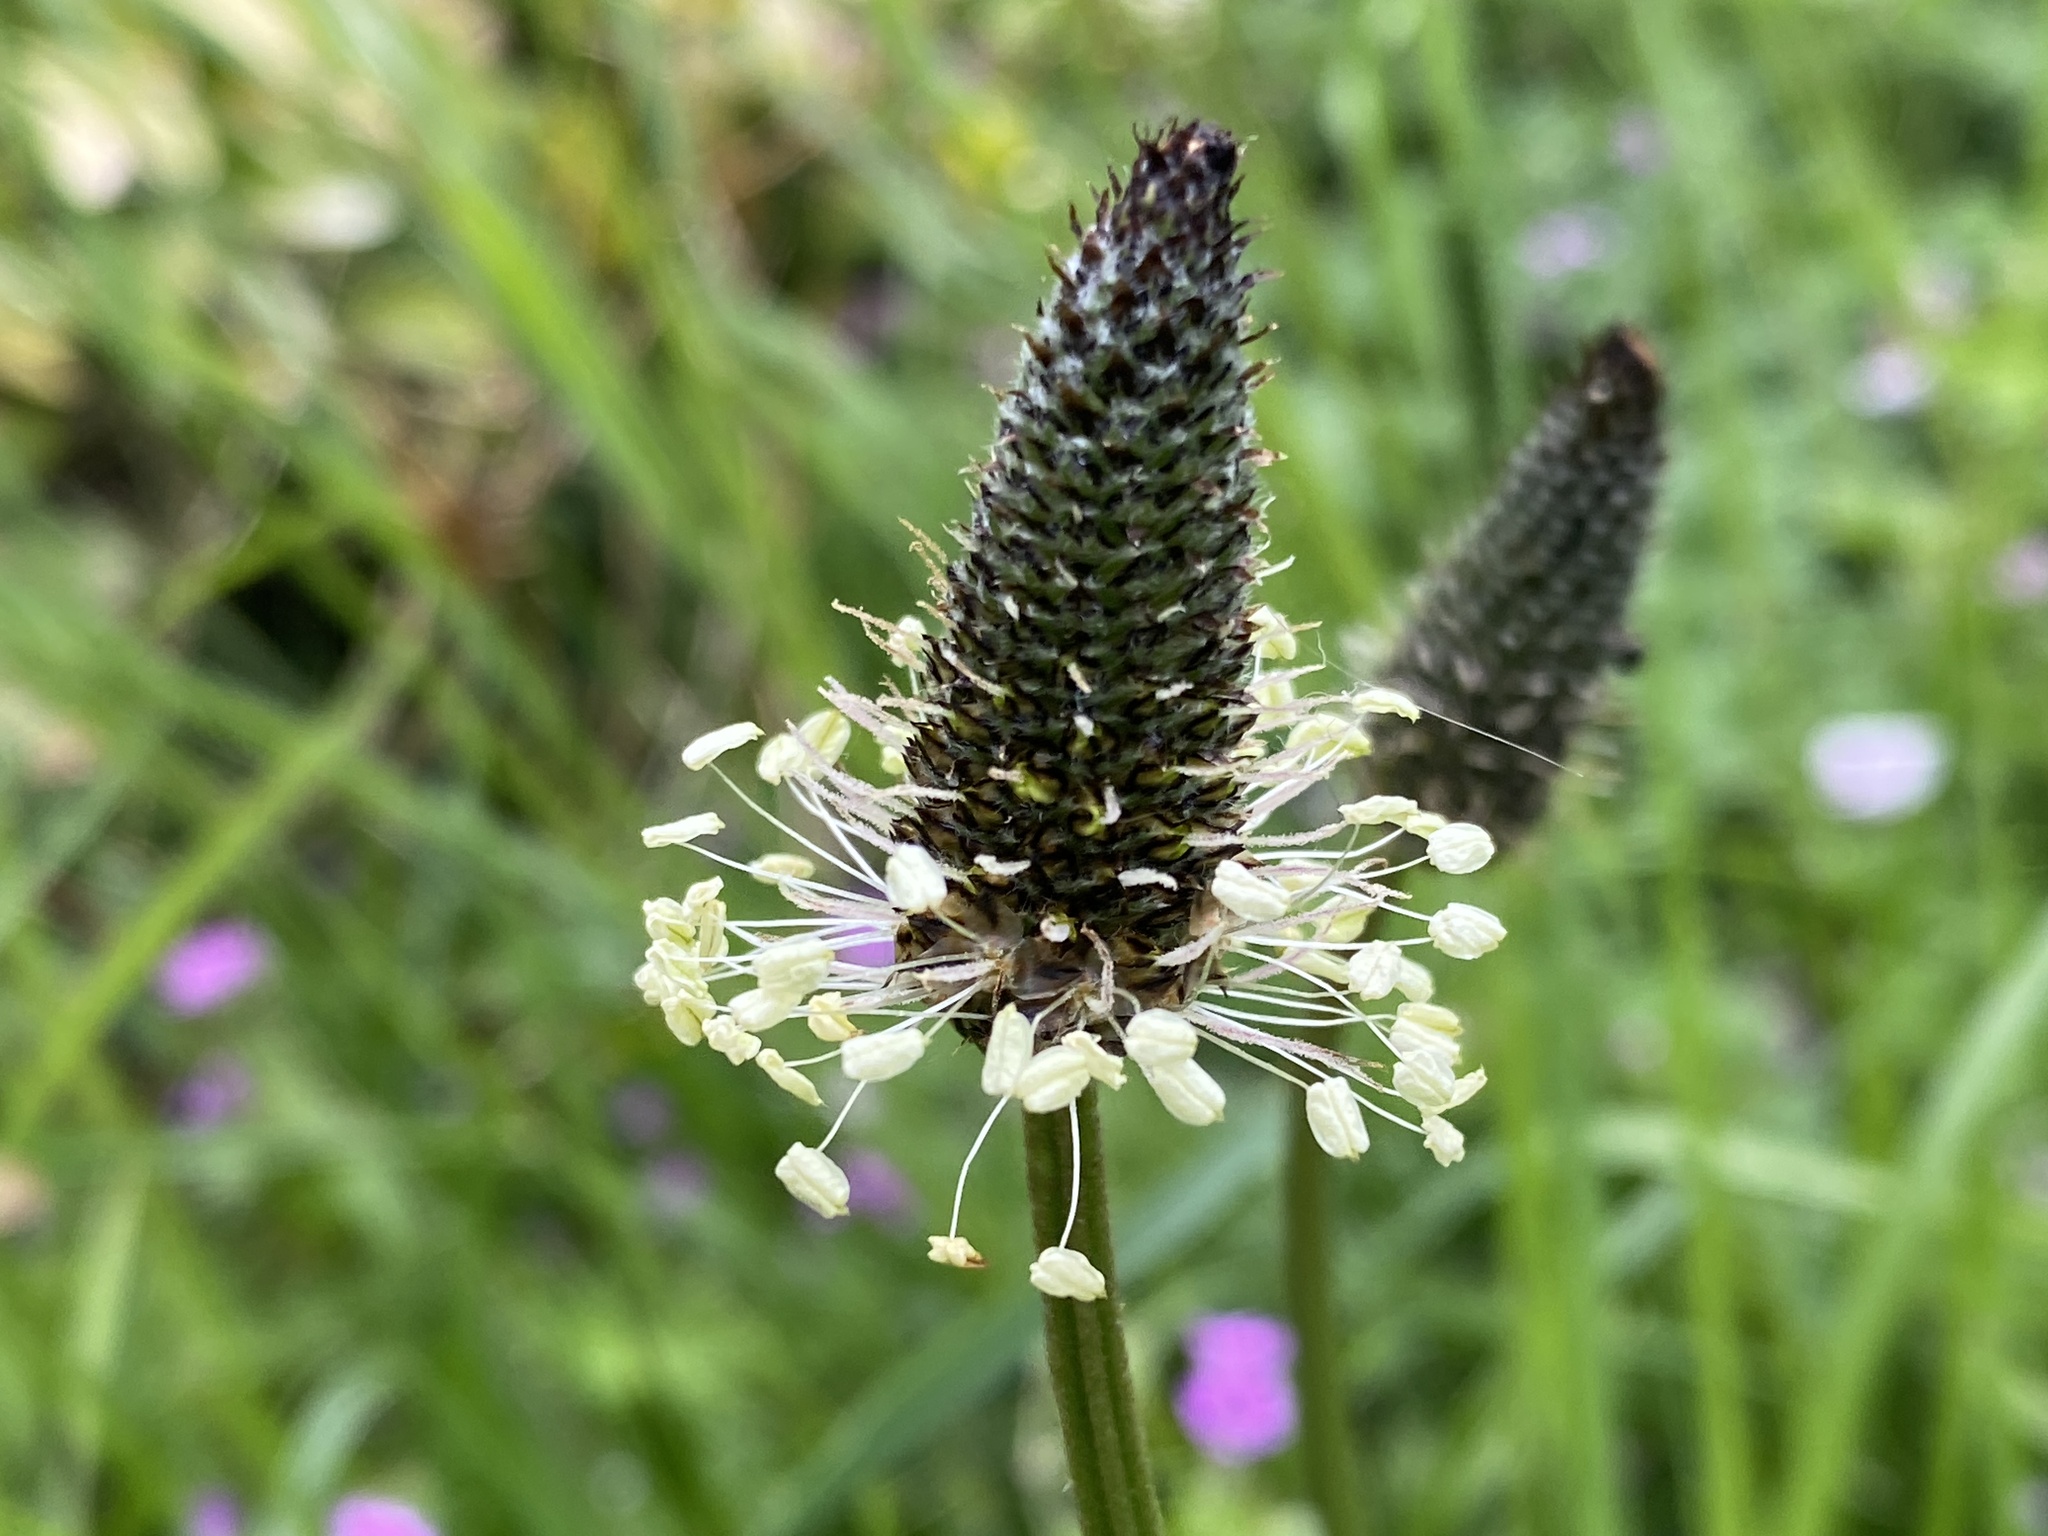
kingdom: Plantae
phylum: Tracheophyta
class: Magnoliopsida
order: Lamiales
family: Plantaginaceae
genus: Plantago
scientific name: Plantago lanceolata
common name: Ribwort plantain
